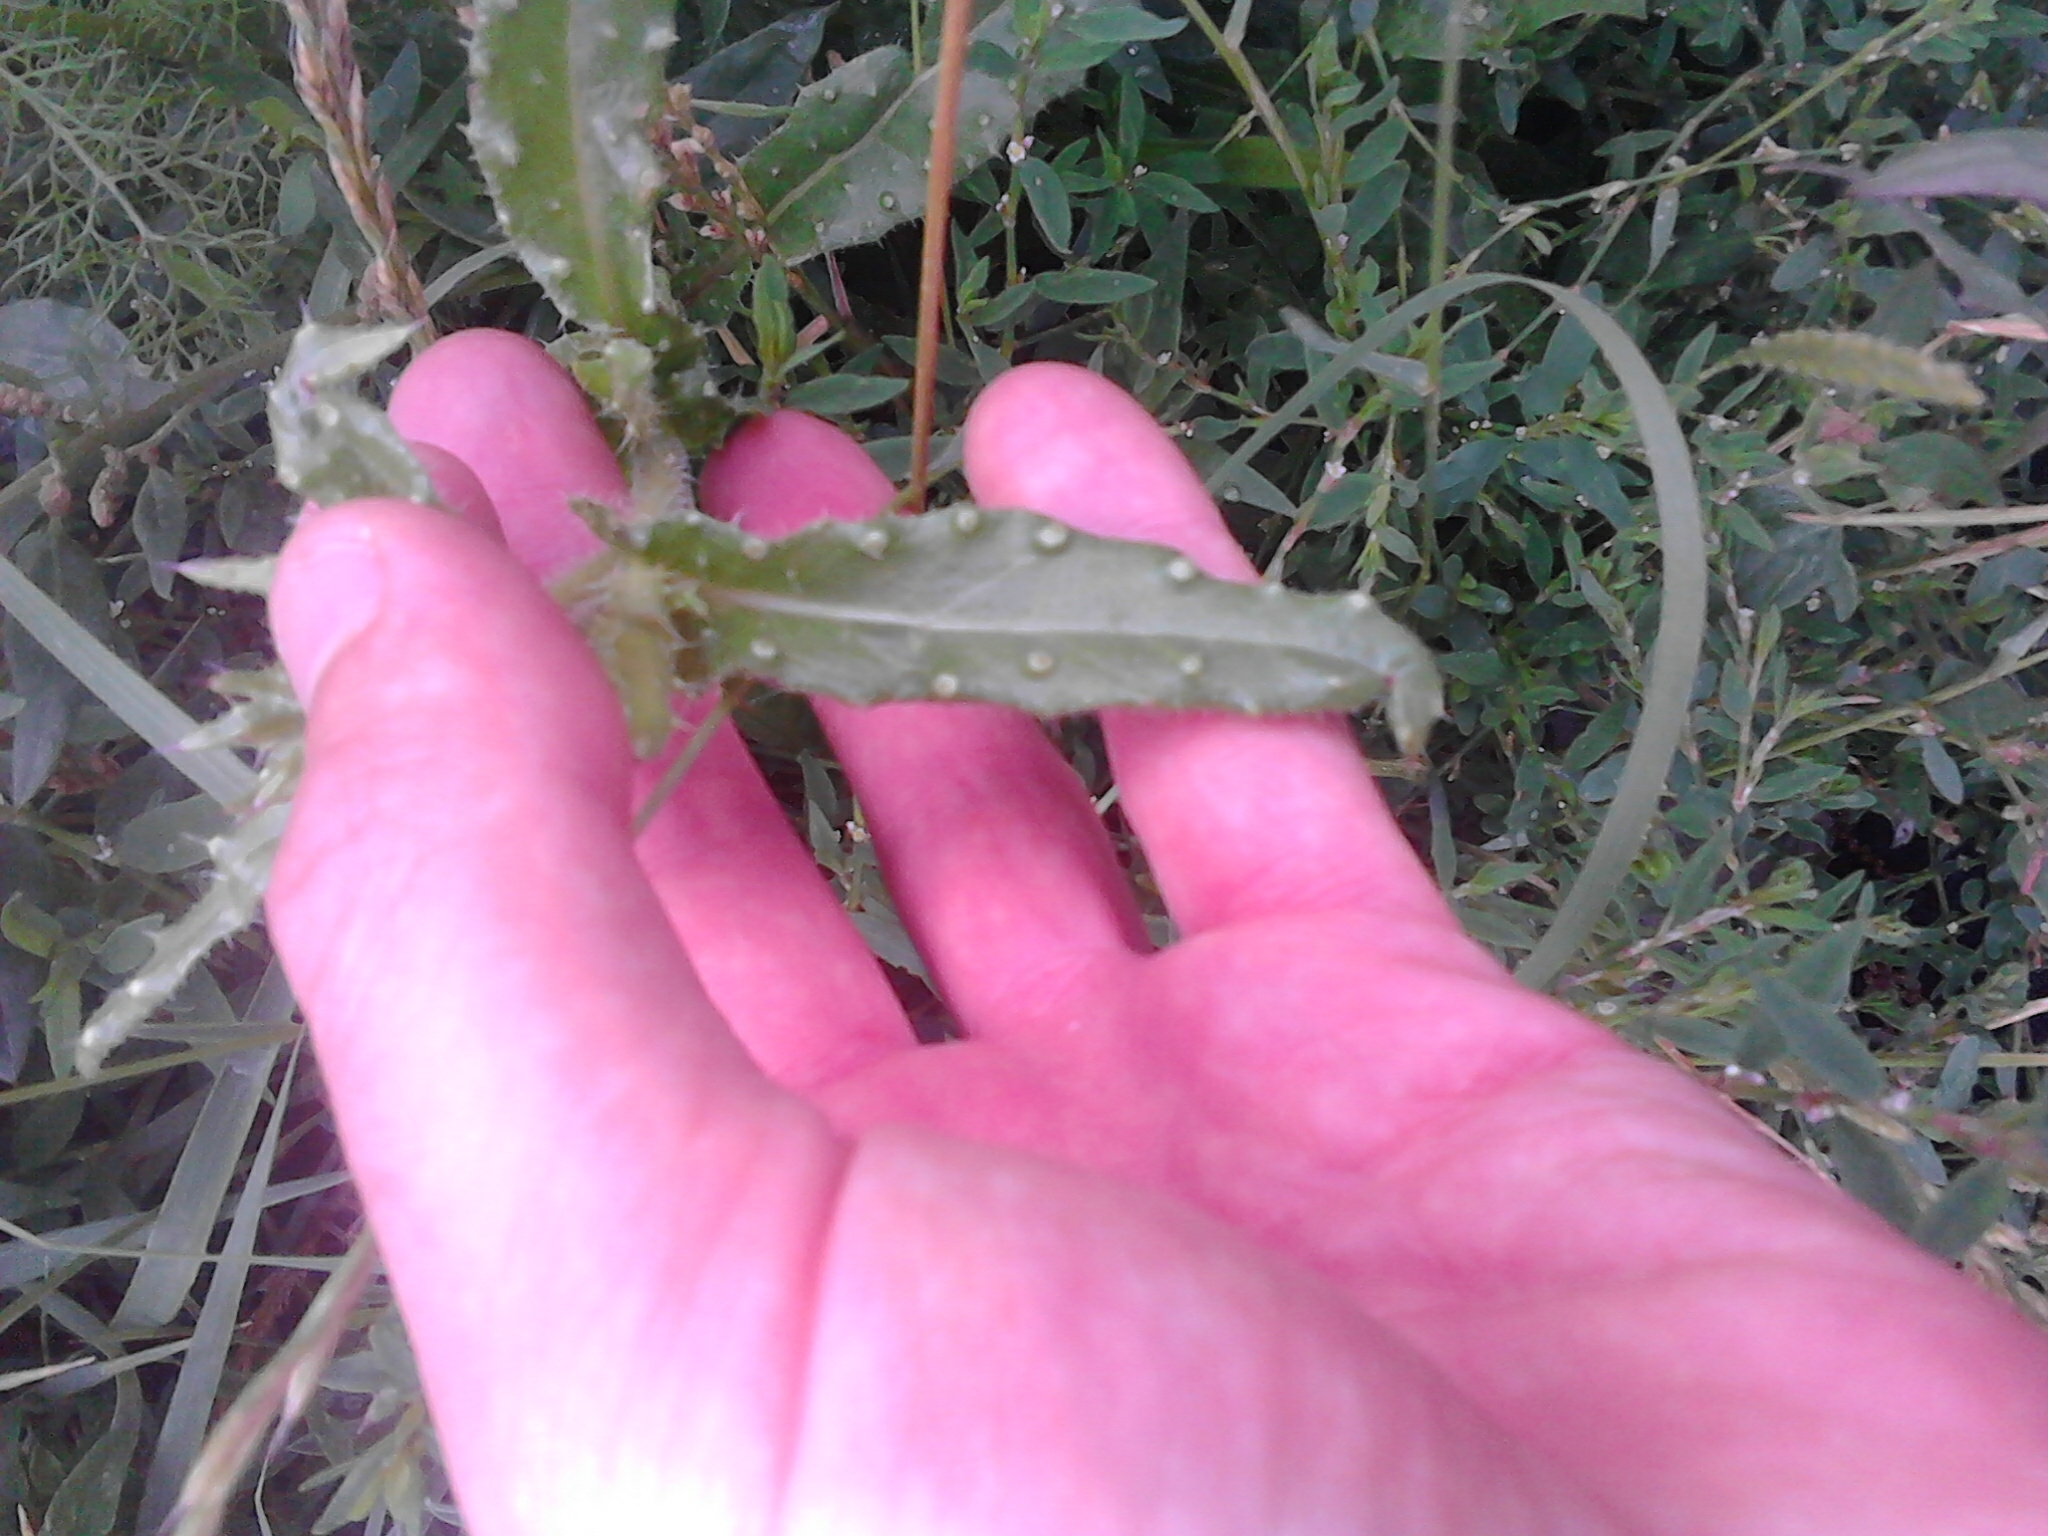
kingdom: Plantae
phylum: Tracheophyta
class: Magnoliopsida
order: Asterales
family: Asteraceae
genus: Helminthotheca
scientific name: Helminthotheca echioides
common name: Ox-tongue
